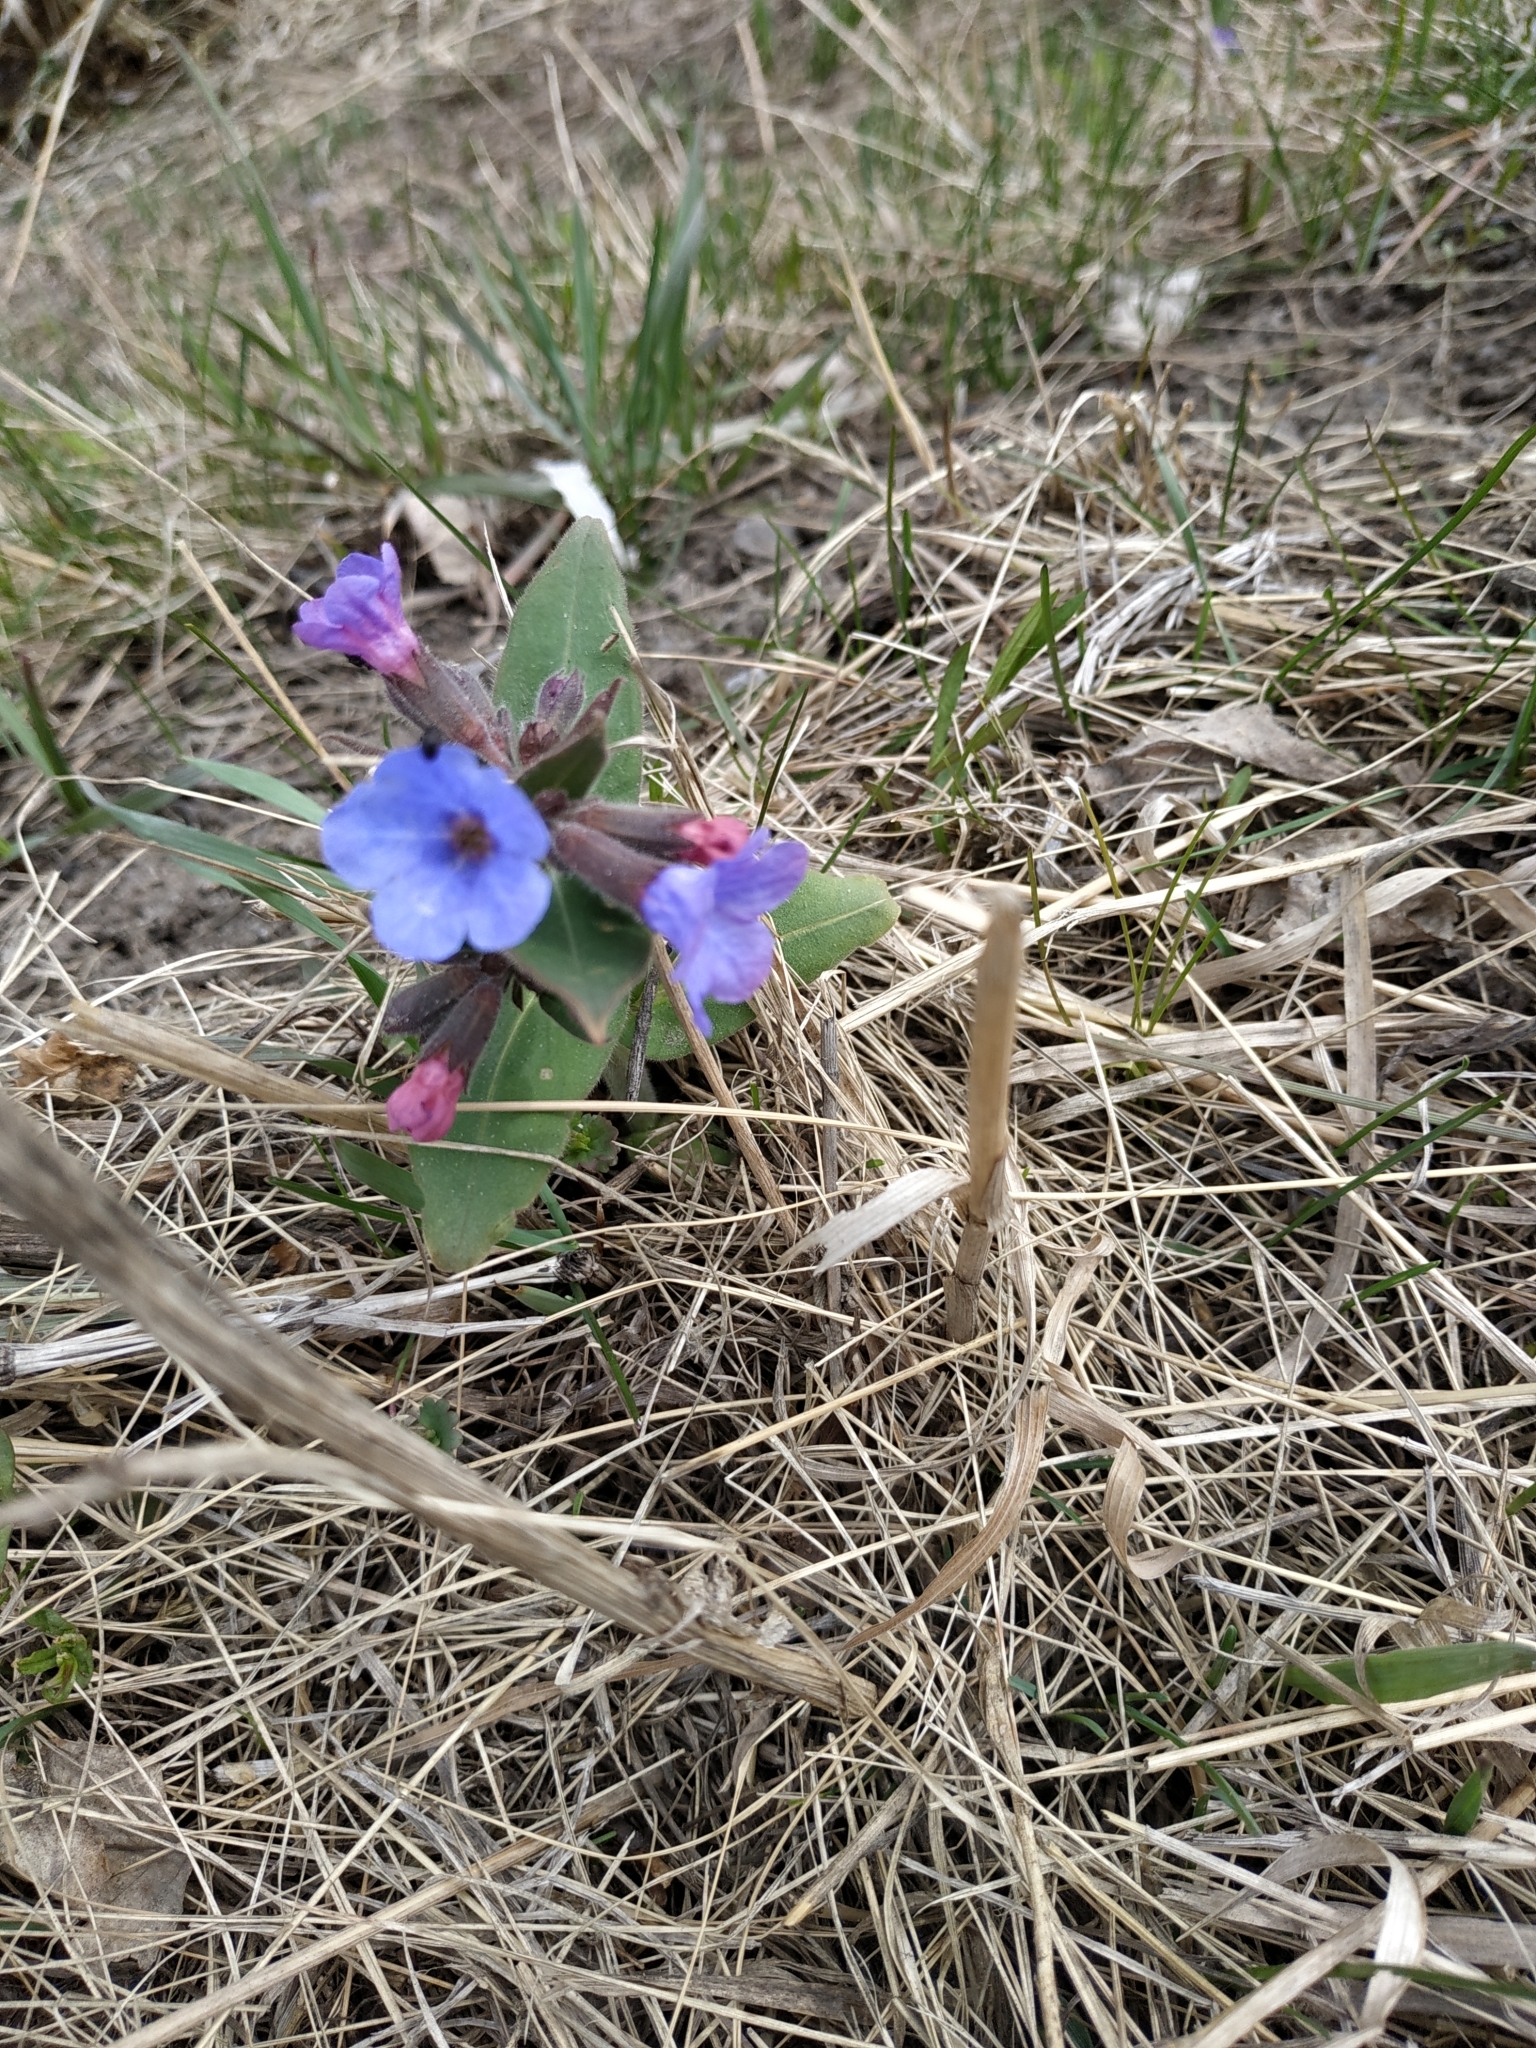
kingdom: Plantae
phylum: Tracheophyta
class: Magnoliopsida
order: Boraginales
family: Boraginaceae
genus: Pulmonaria
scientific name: Pulmonaria mollis
